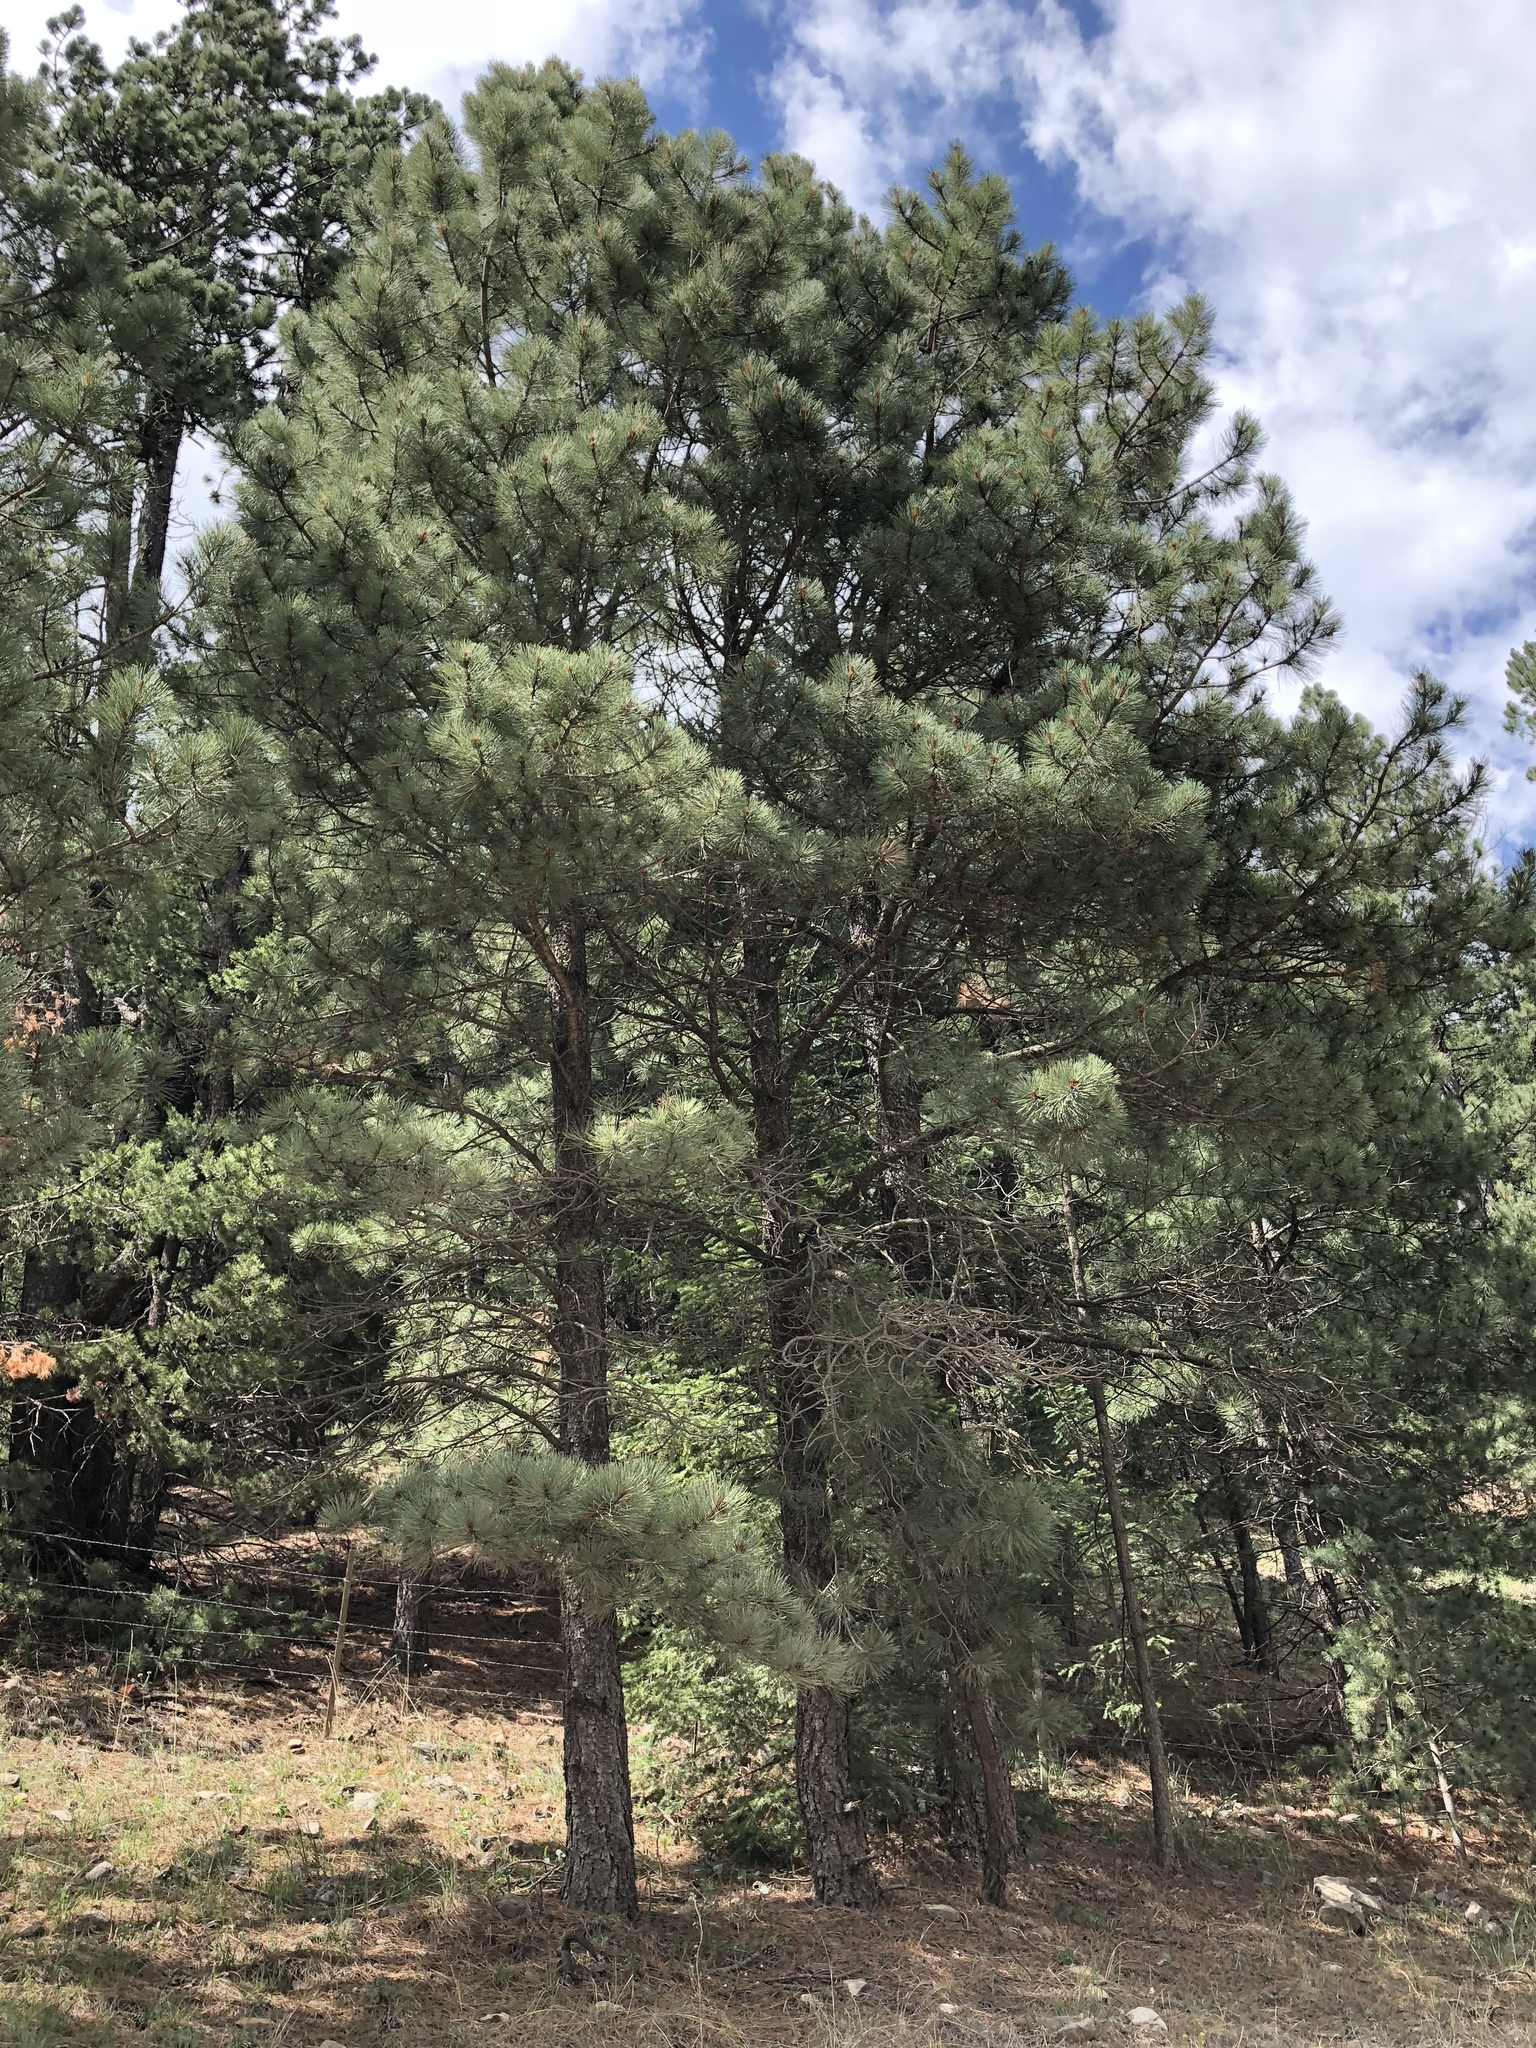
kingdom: Plantae
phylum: Tracheophyta
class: Pinopsida
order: Pinales
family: Pinaceae
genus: Pinus
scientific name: Pinus ponderosa
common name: Western yellow-pine
